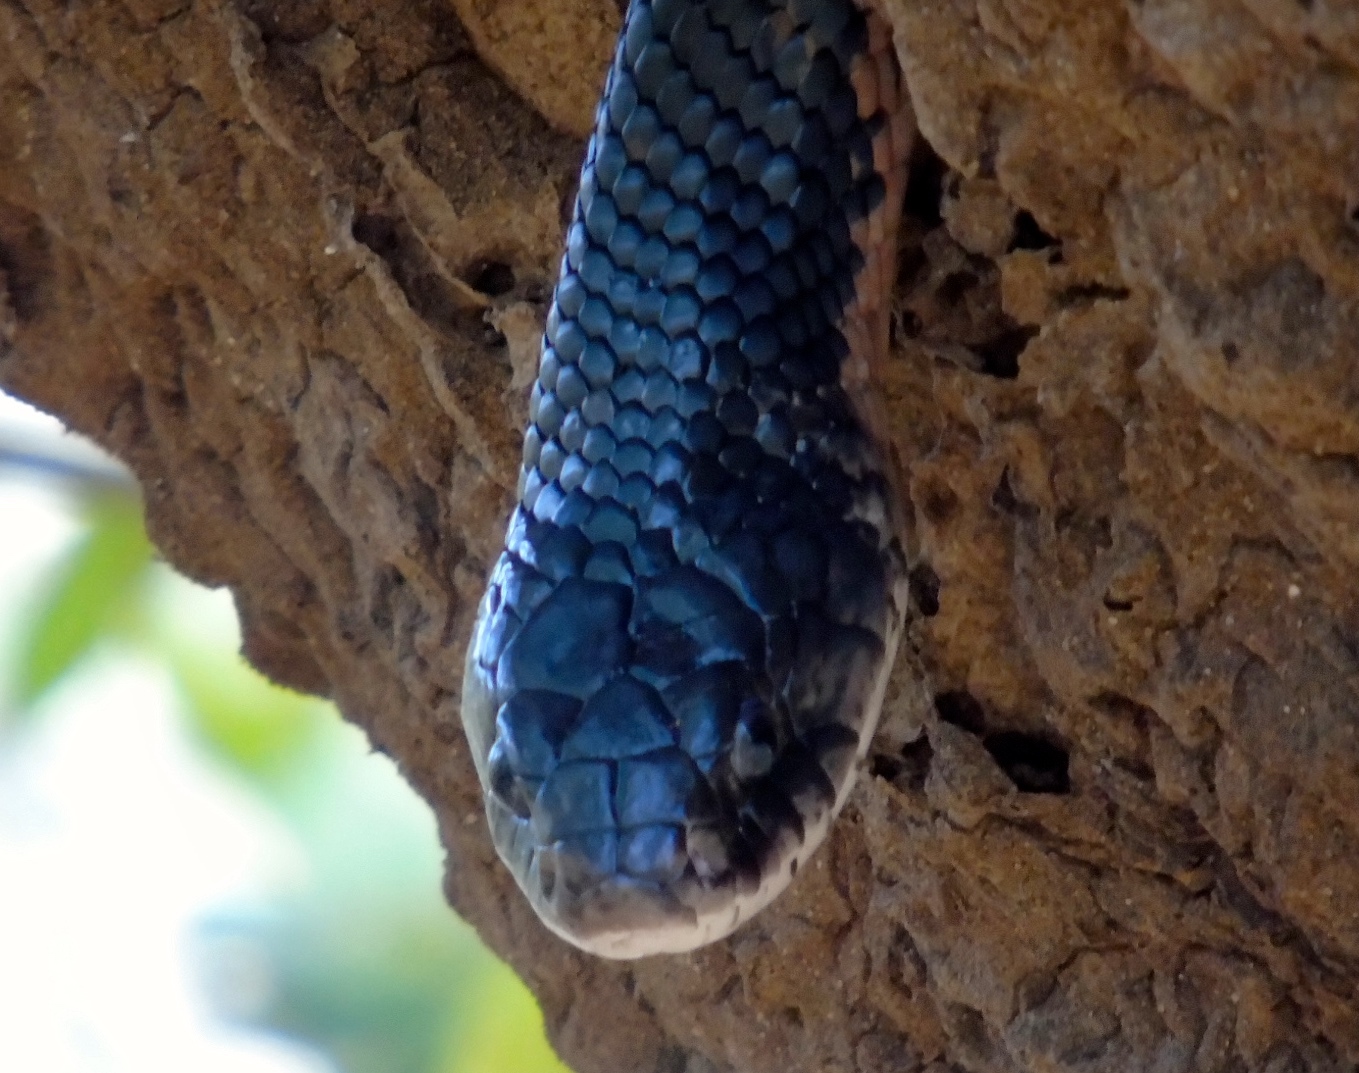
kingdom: Animalia
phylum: Chordata
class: Squamata
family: Colubridae
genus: Drymarchon
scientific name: Drymarchon melanurus
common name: Central american indigo snake
